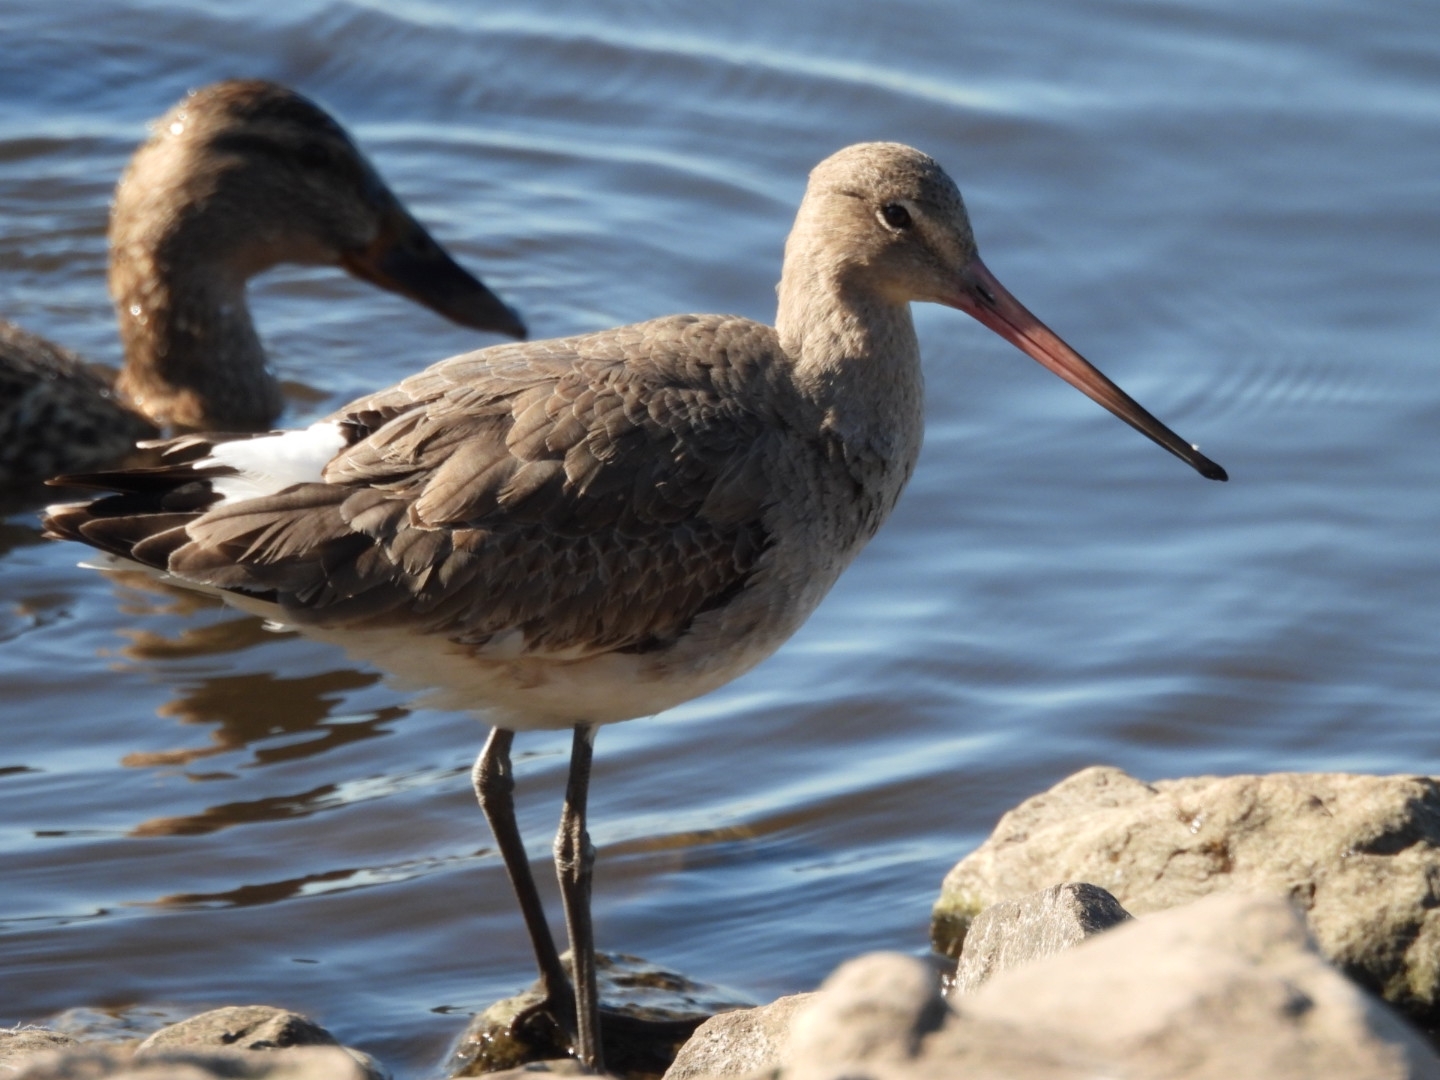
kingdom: Animalia
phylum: Chordata
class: Aves
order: Charadriiformes
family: Scolopacidae
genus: Limosa
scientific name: Limosa limosa
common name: Black-tailed godwit
